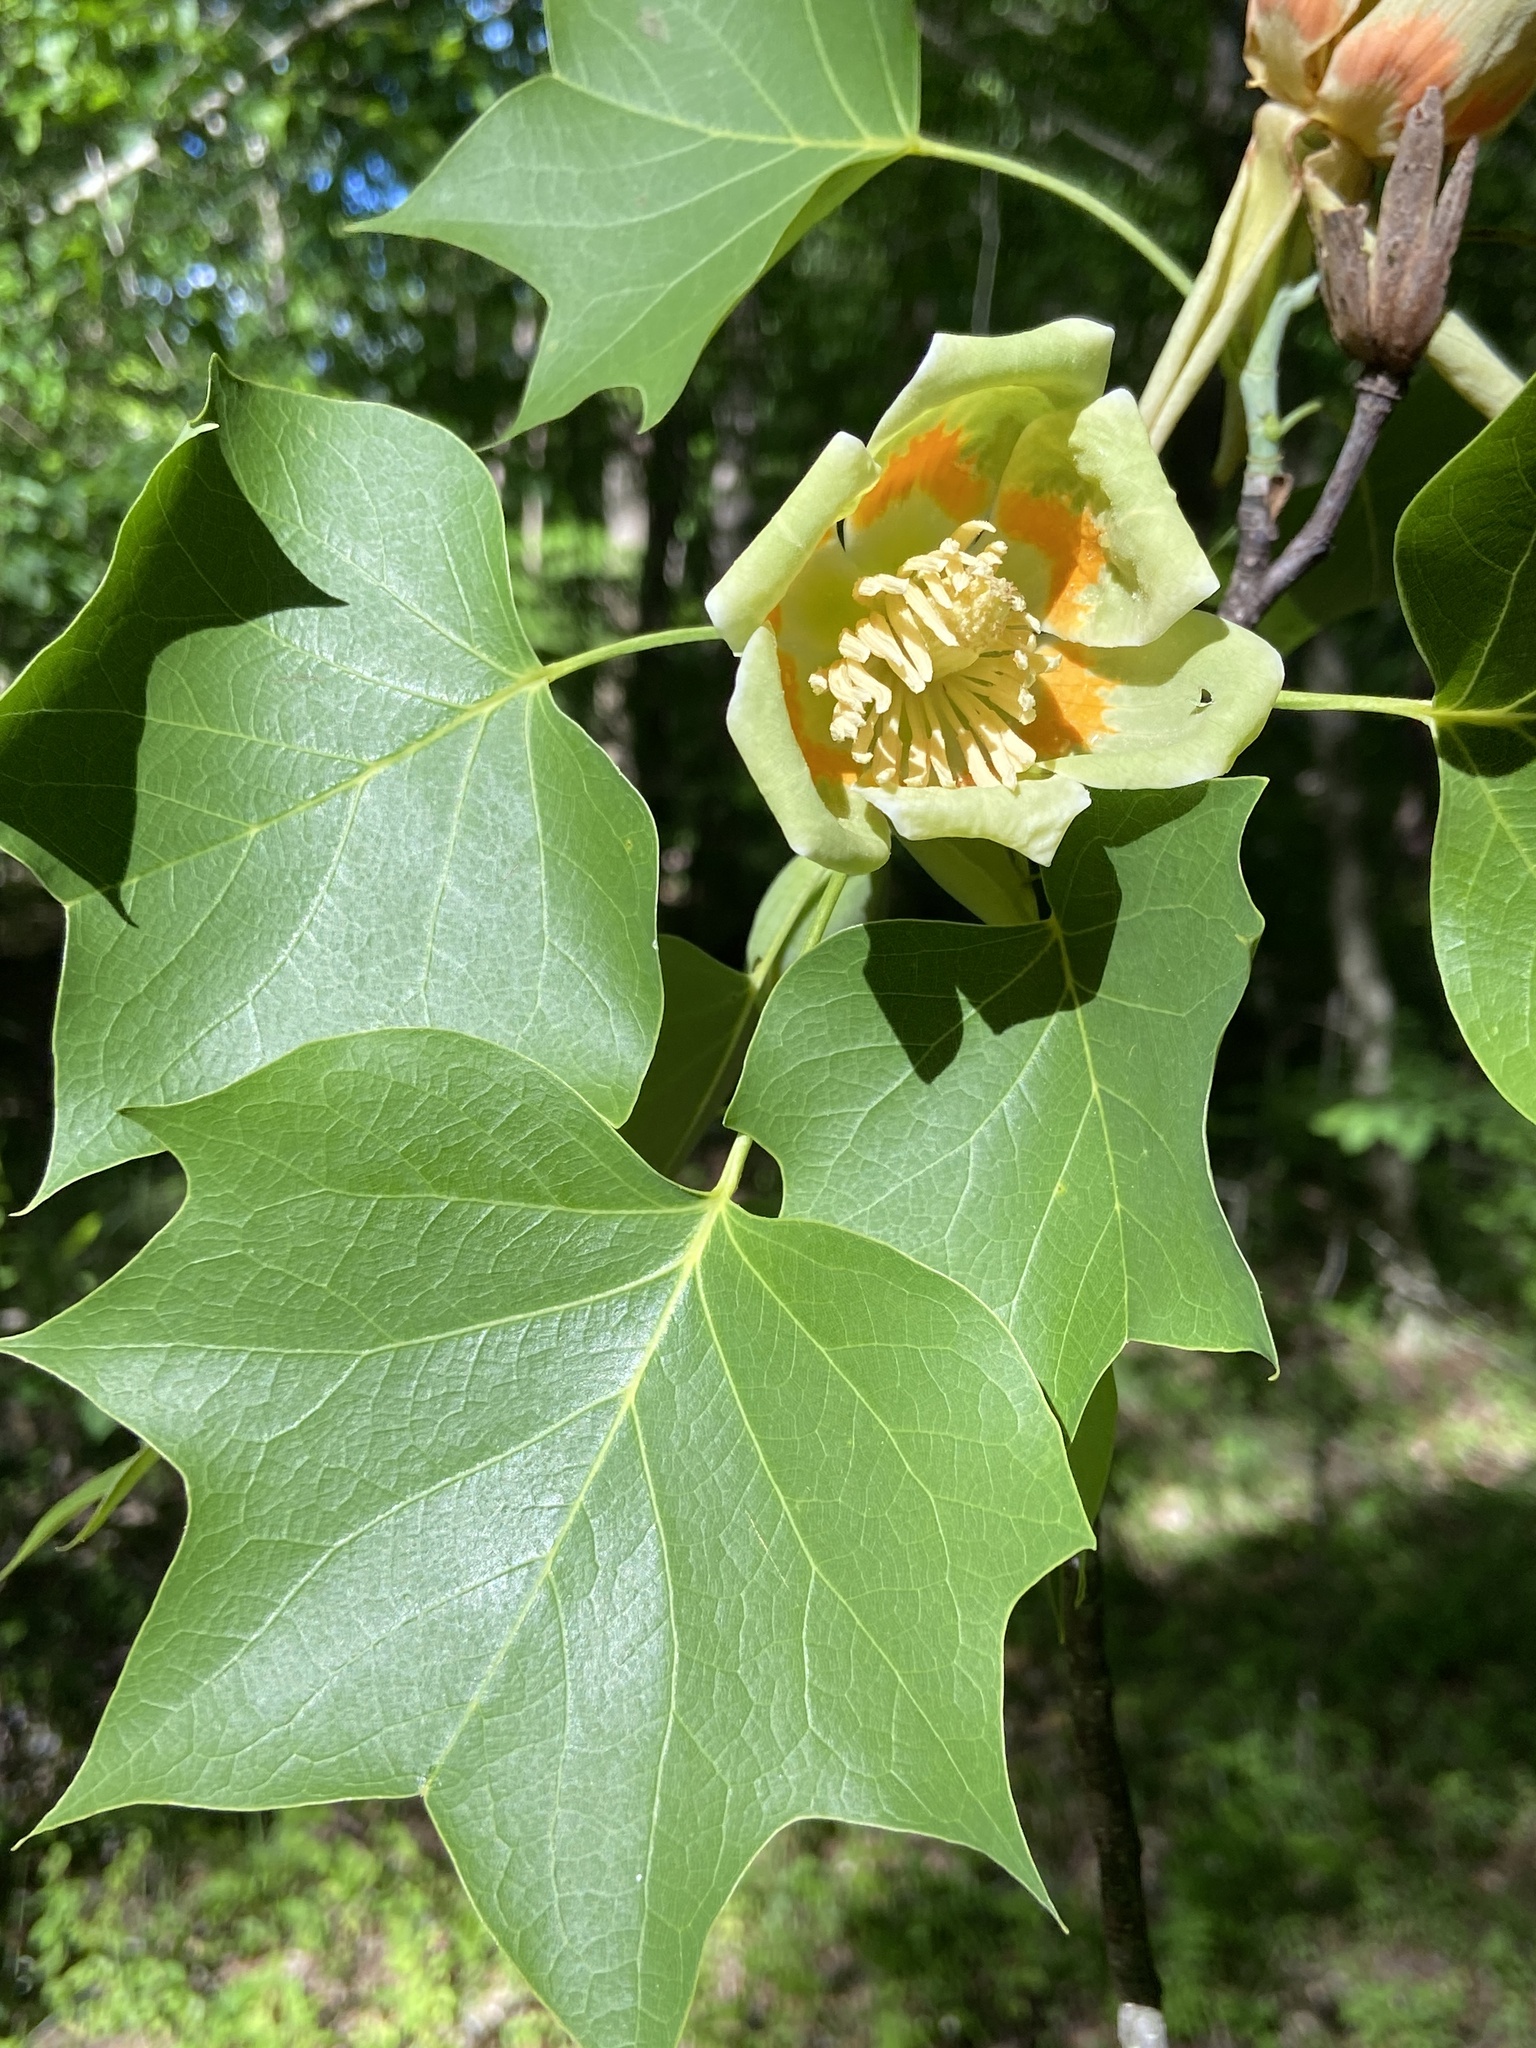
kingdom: Plantae
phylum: Tracheophyta
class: Magnoliopsida
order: Magnoliales
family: Magnoliaceae
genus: Liriodendron
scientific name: Liriodendron tulipifera
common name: Tulip tree
